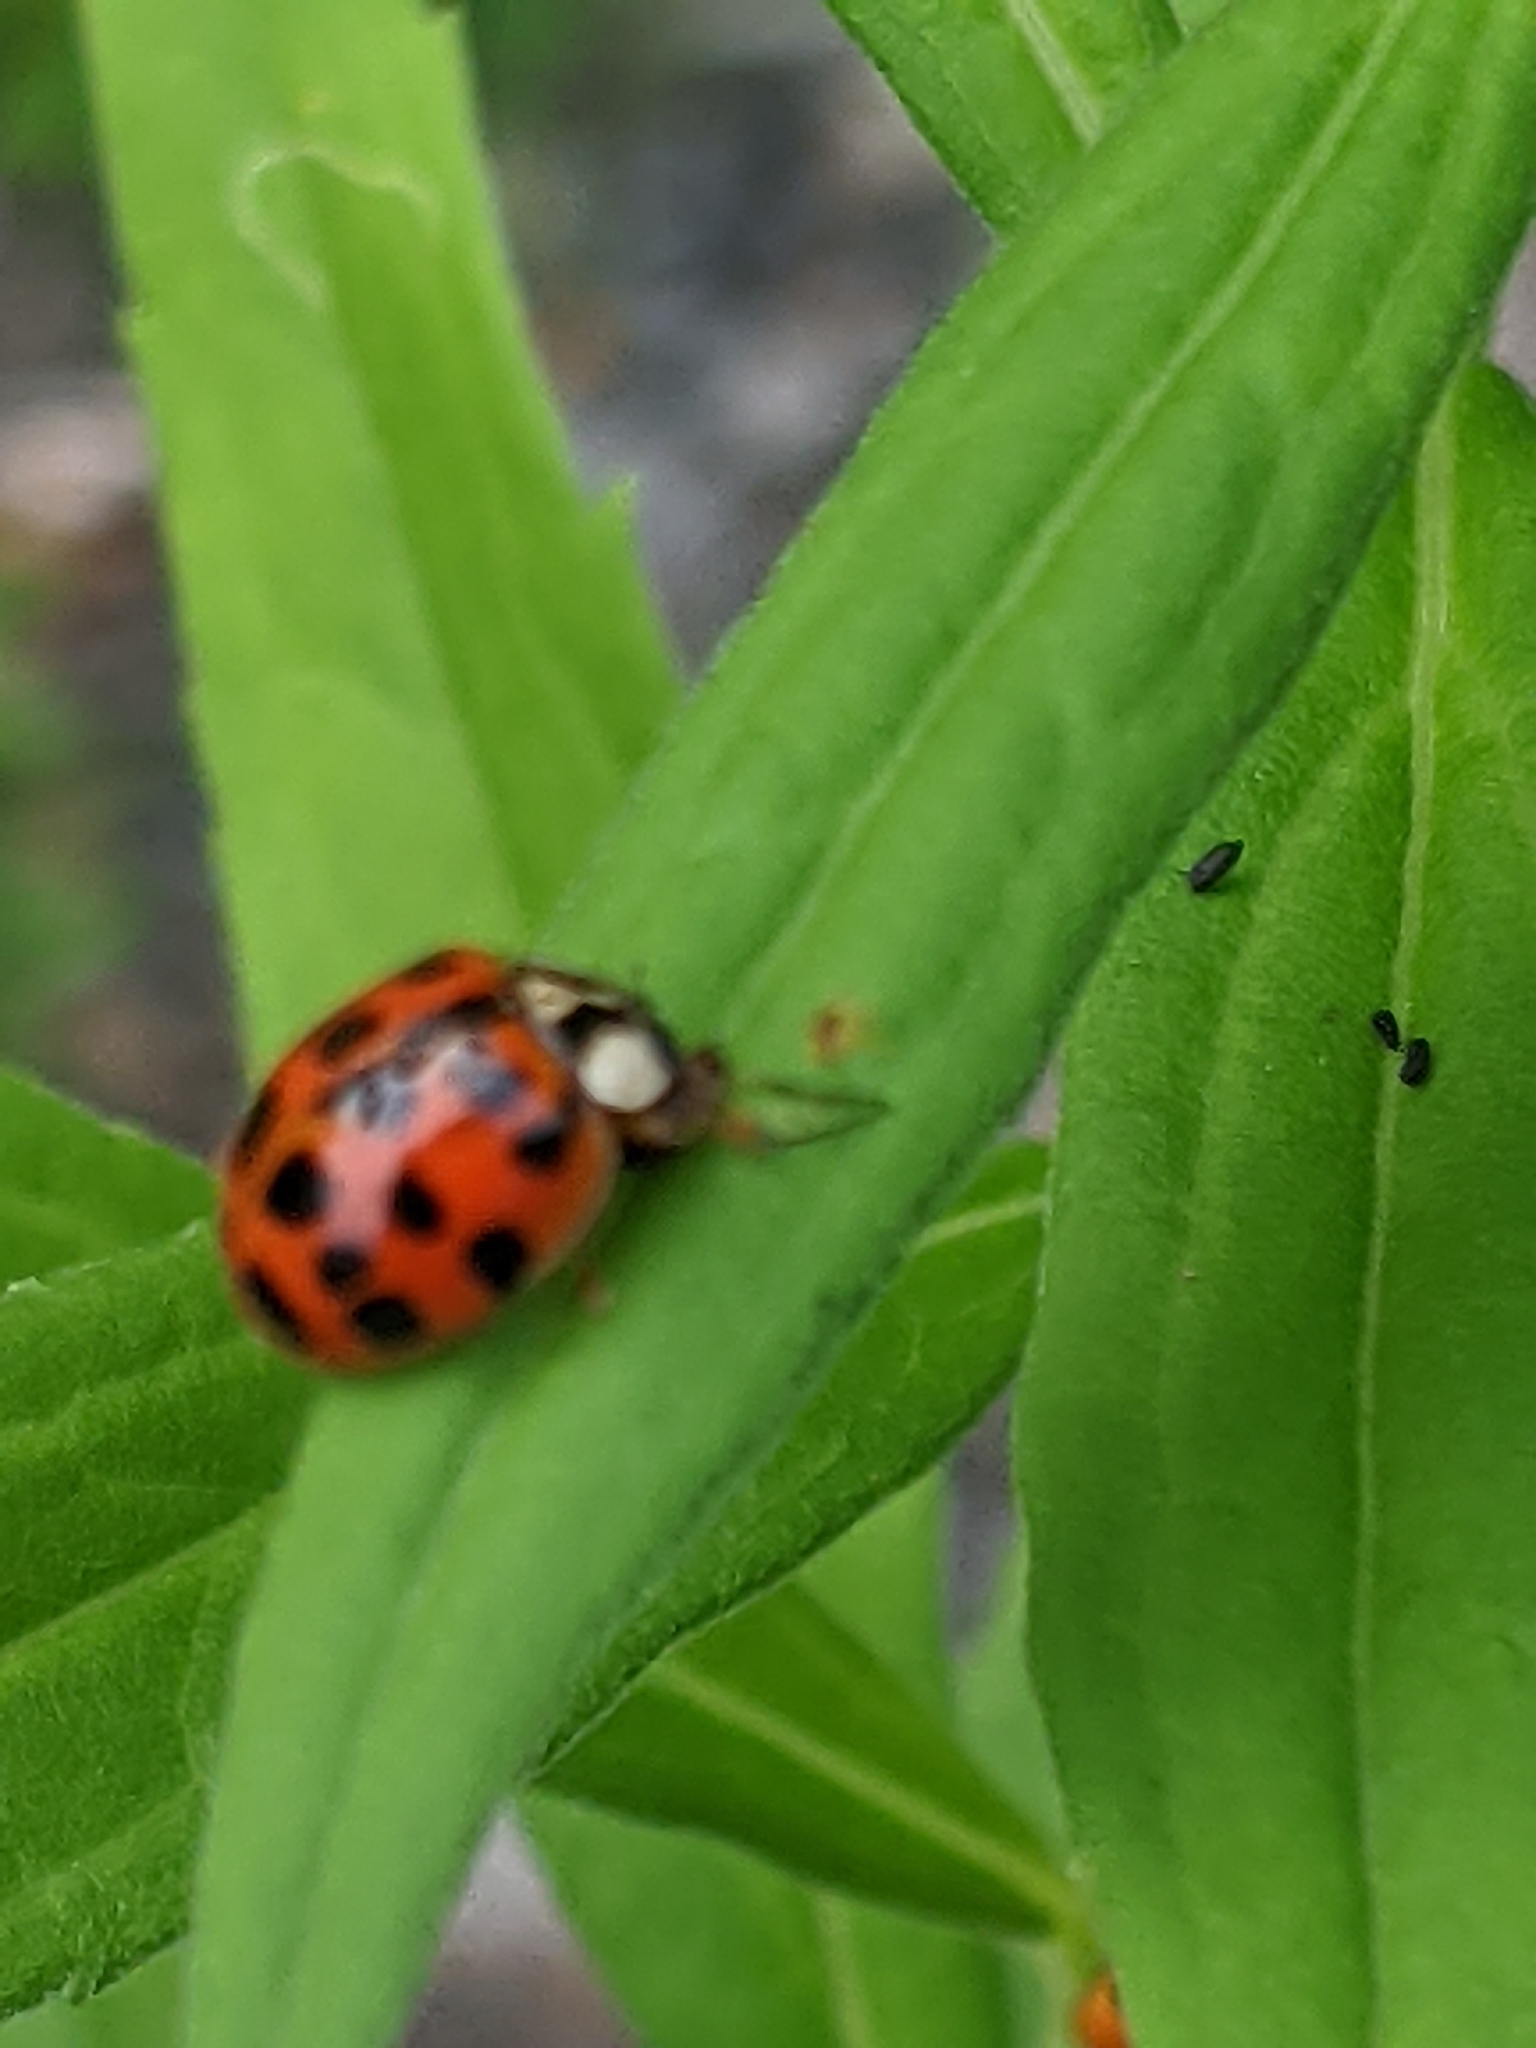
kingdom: Animalia
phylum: Arthropoda
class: Insecta
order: Coleoptera
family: Coccinellidae
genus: Harmonia
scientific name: Harmonia axyridis
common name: Harlequin ladybird
